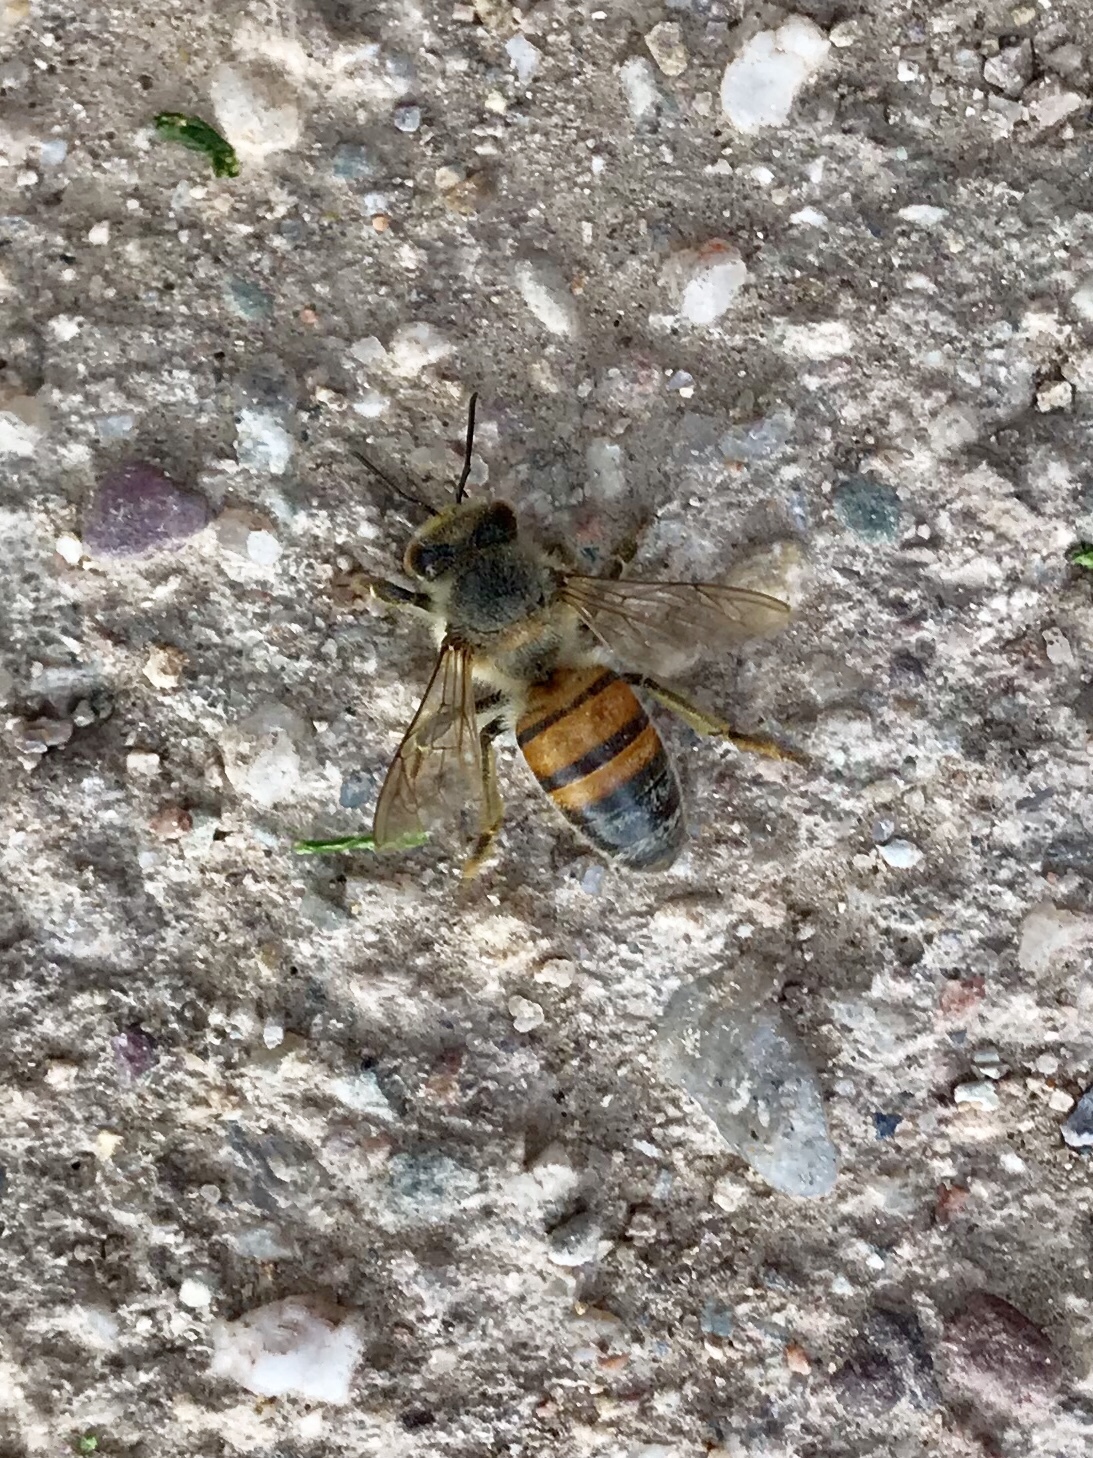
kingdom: Animalia
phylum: Arthropoda
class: Insecta
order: Hymenoptera
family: Apidae
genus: Apis
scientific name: Apis mellifera
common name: Honey bee
